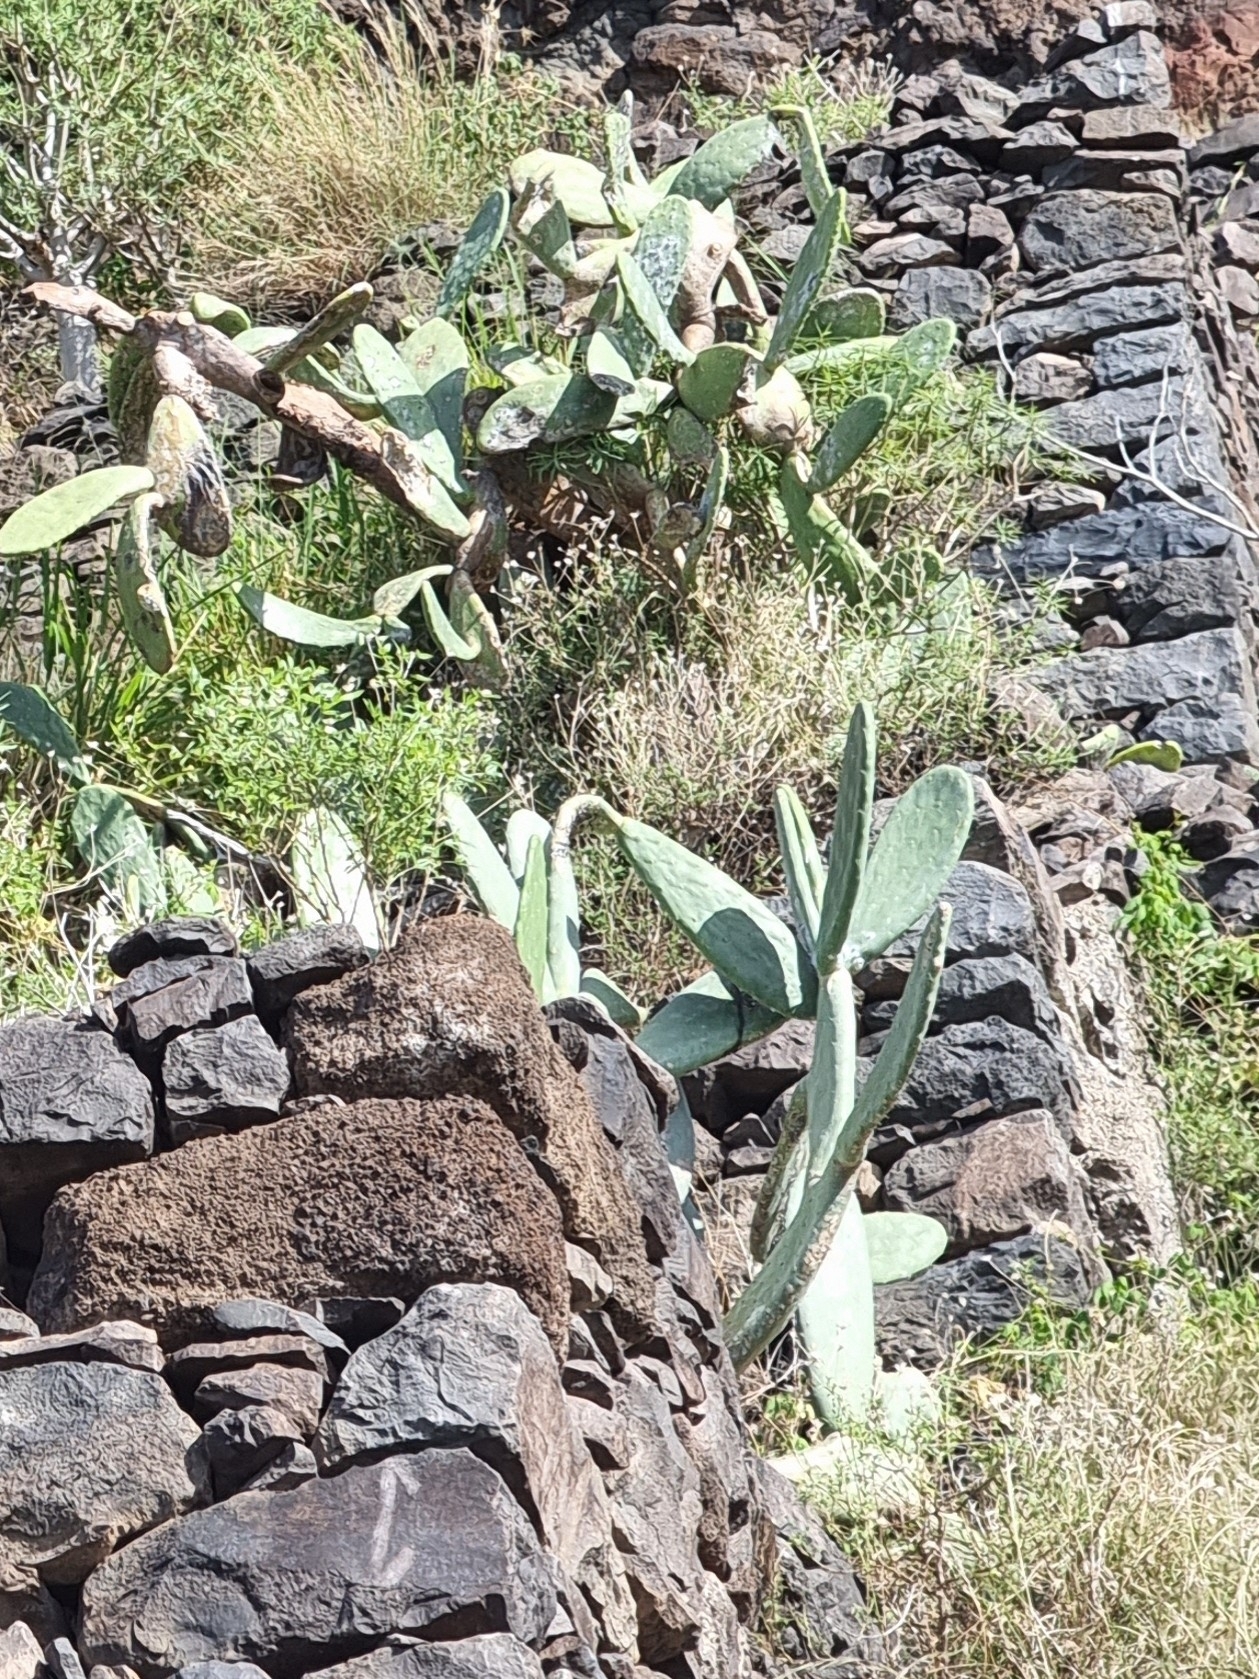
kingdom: Plantae
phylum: Tracheophyta
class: Magnoliopsida
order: Caryophyllales
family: Cactaceae
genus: Opuntia
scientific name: Opuntia ficus-indica
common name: Barbary fig
